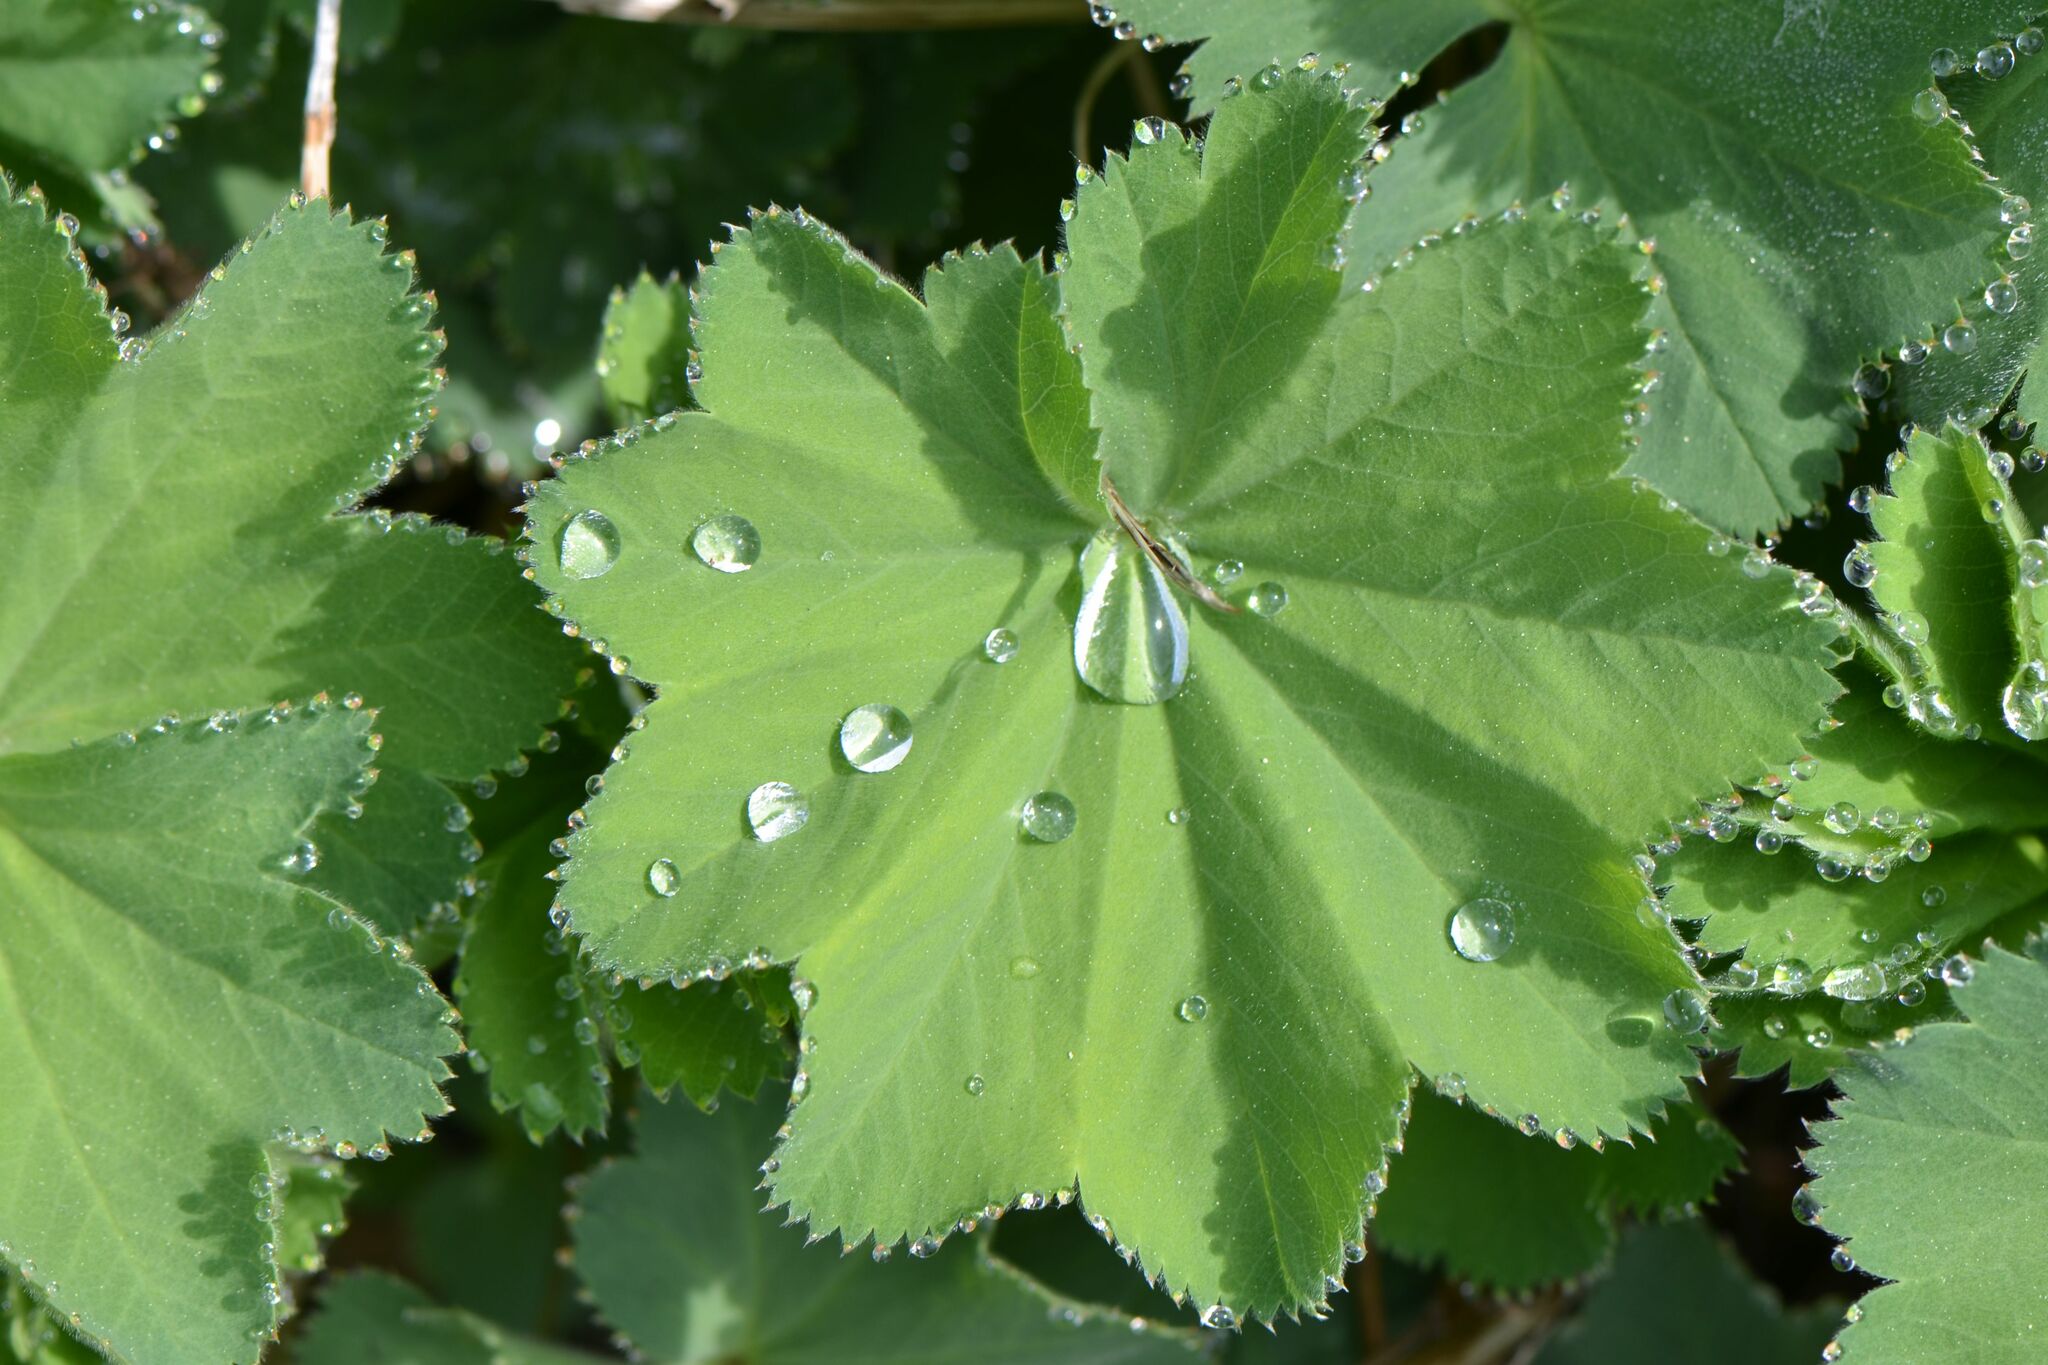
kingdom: Plantae
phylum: Tracheophyta
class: Magnoliopsida
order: Rosales
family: Rosaceae
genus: Alchemilla
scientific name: Alchemilla mollis
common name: Lady's-mantle
